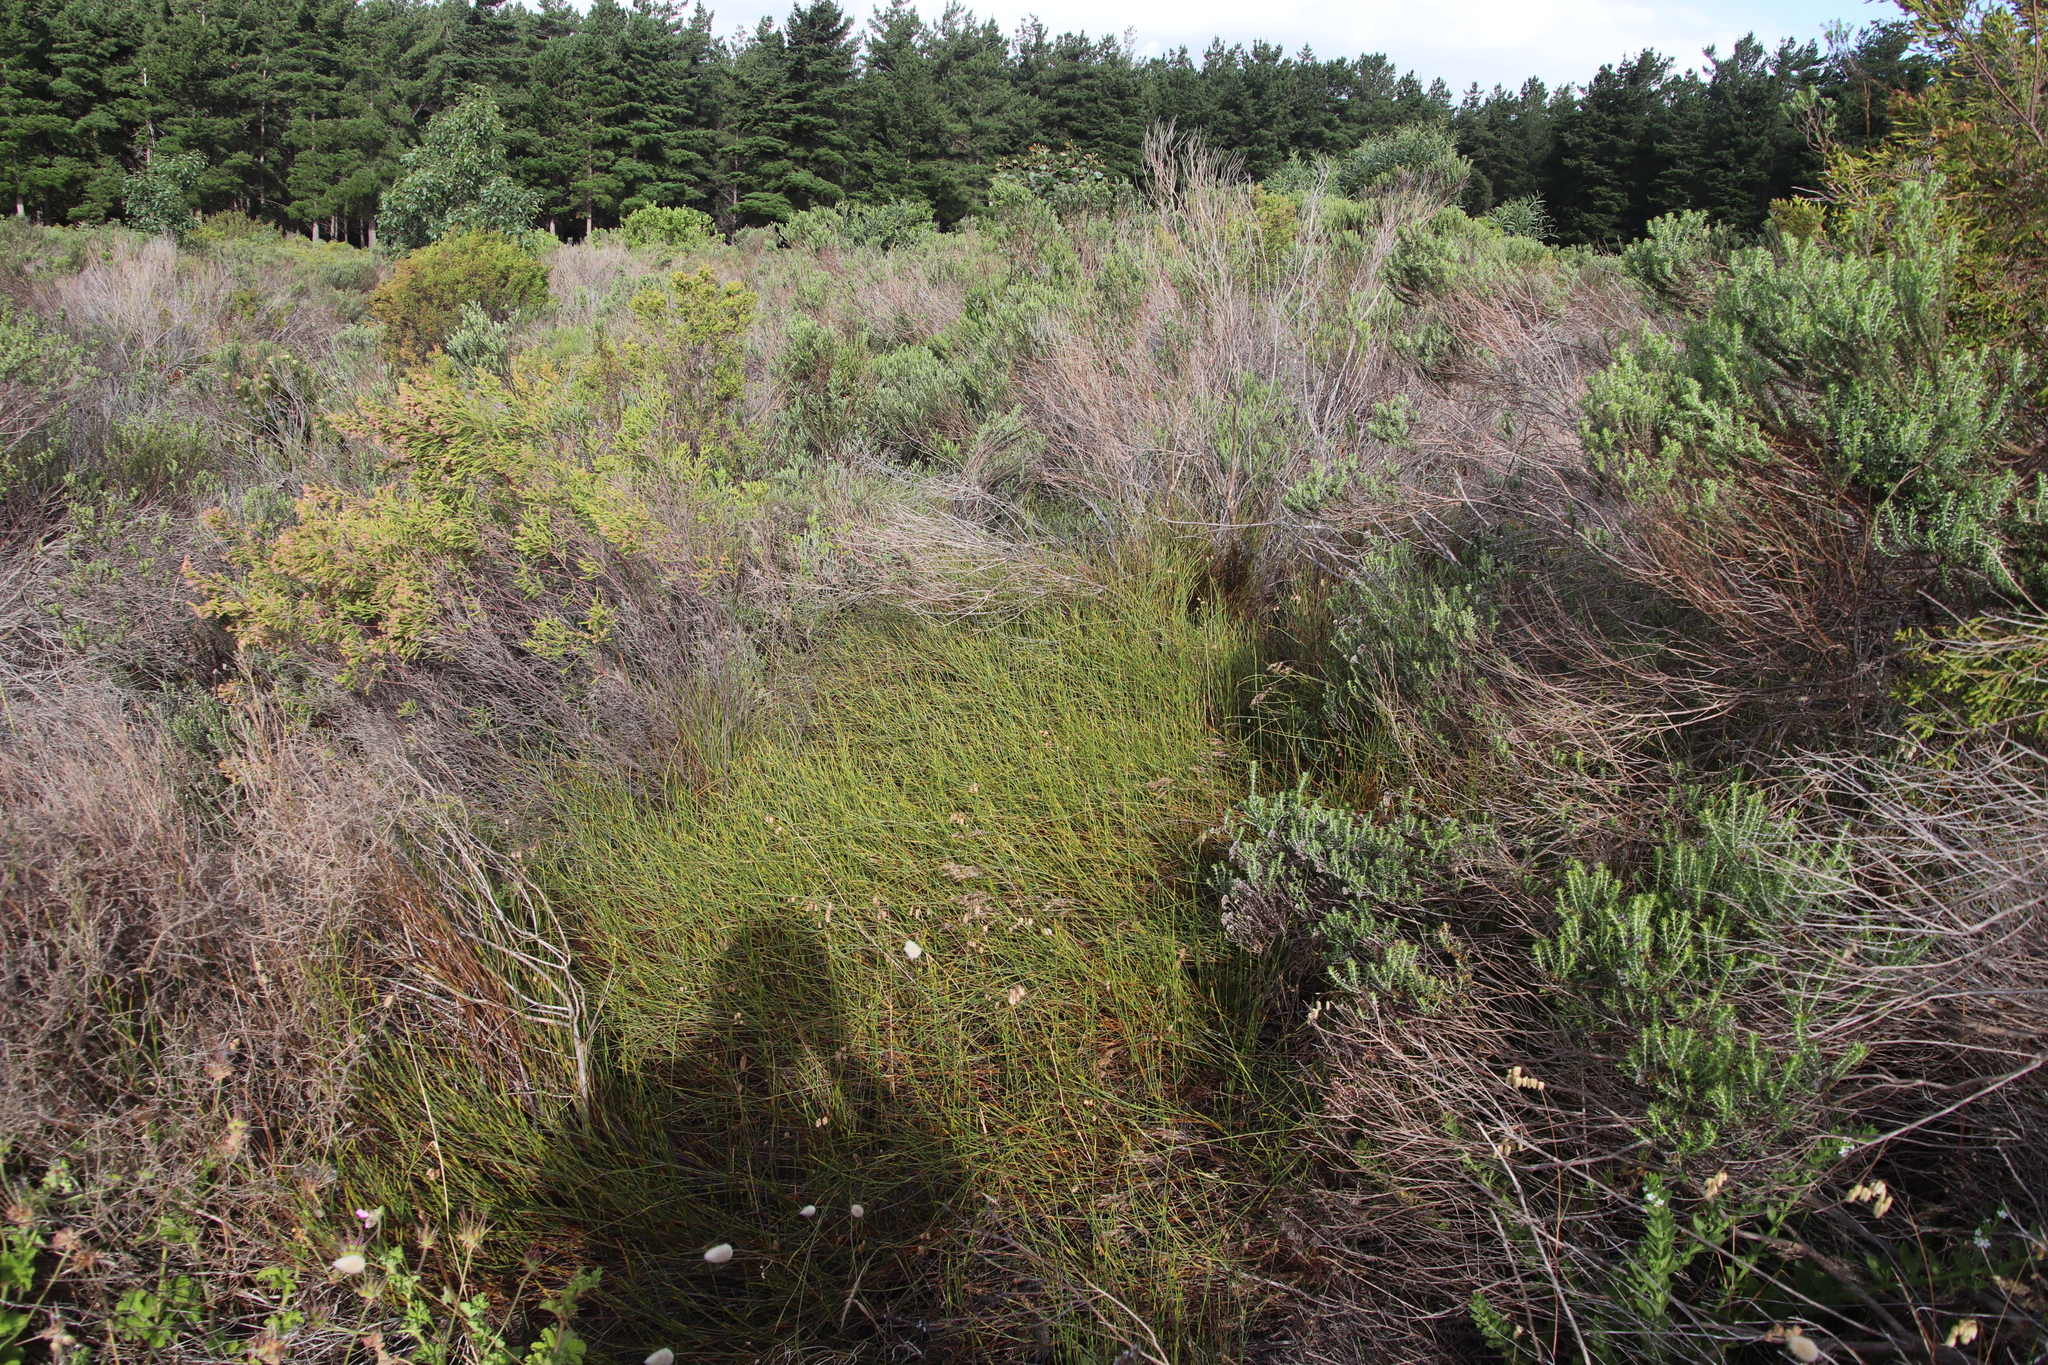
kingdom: Plantae
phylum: Tracheophyta
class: Liliopsida
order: Poales
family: Restionaceae
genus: Willdenowia
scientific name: Willdenowia sulcata
